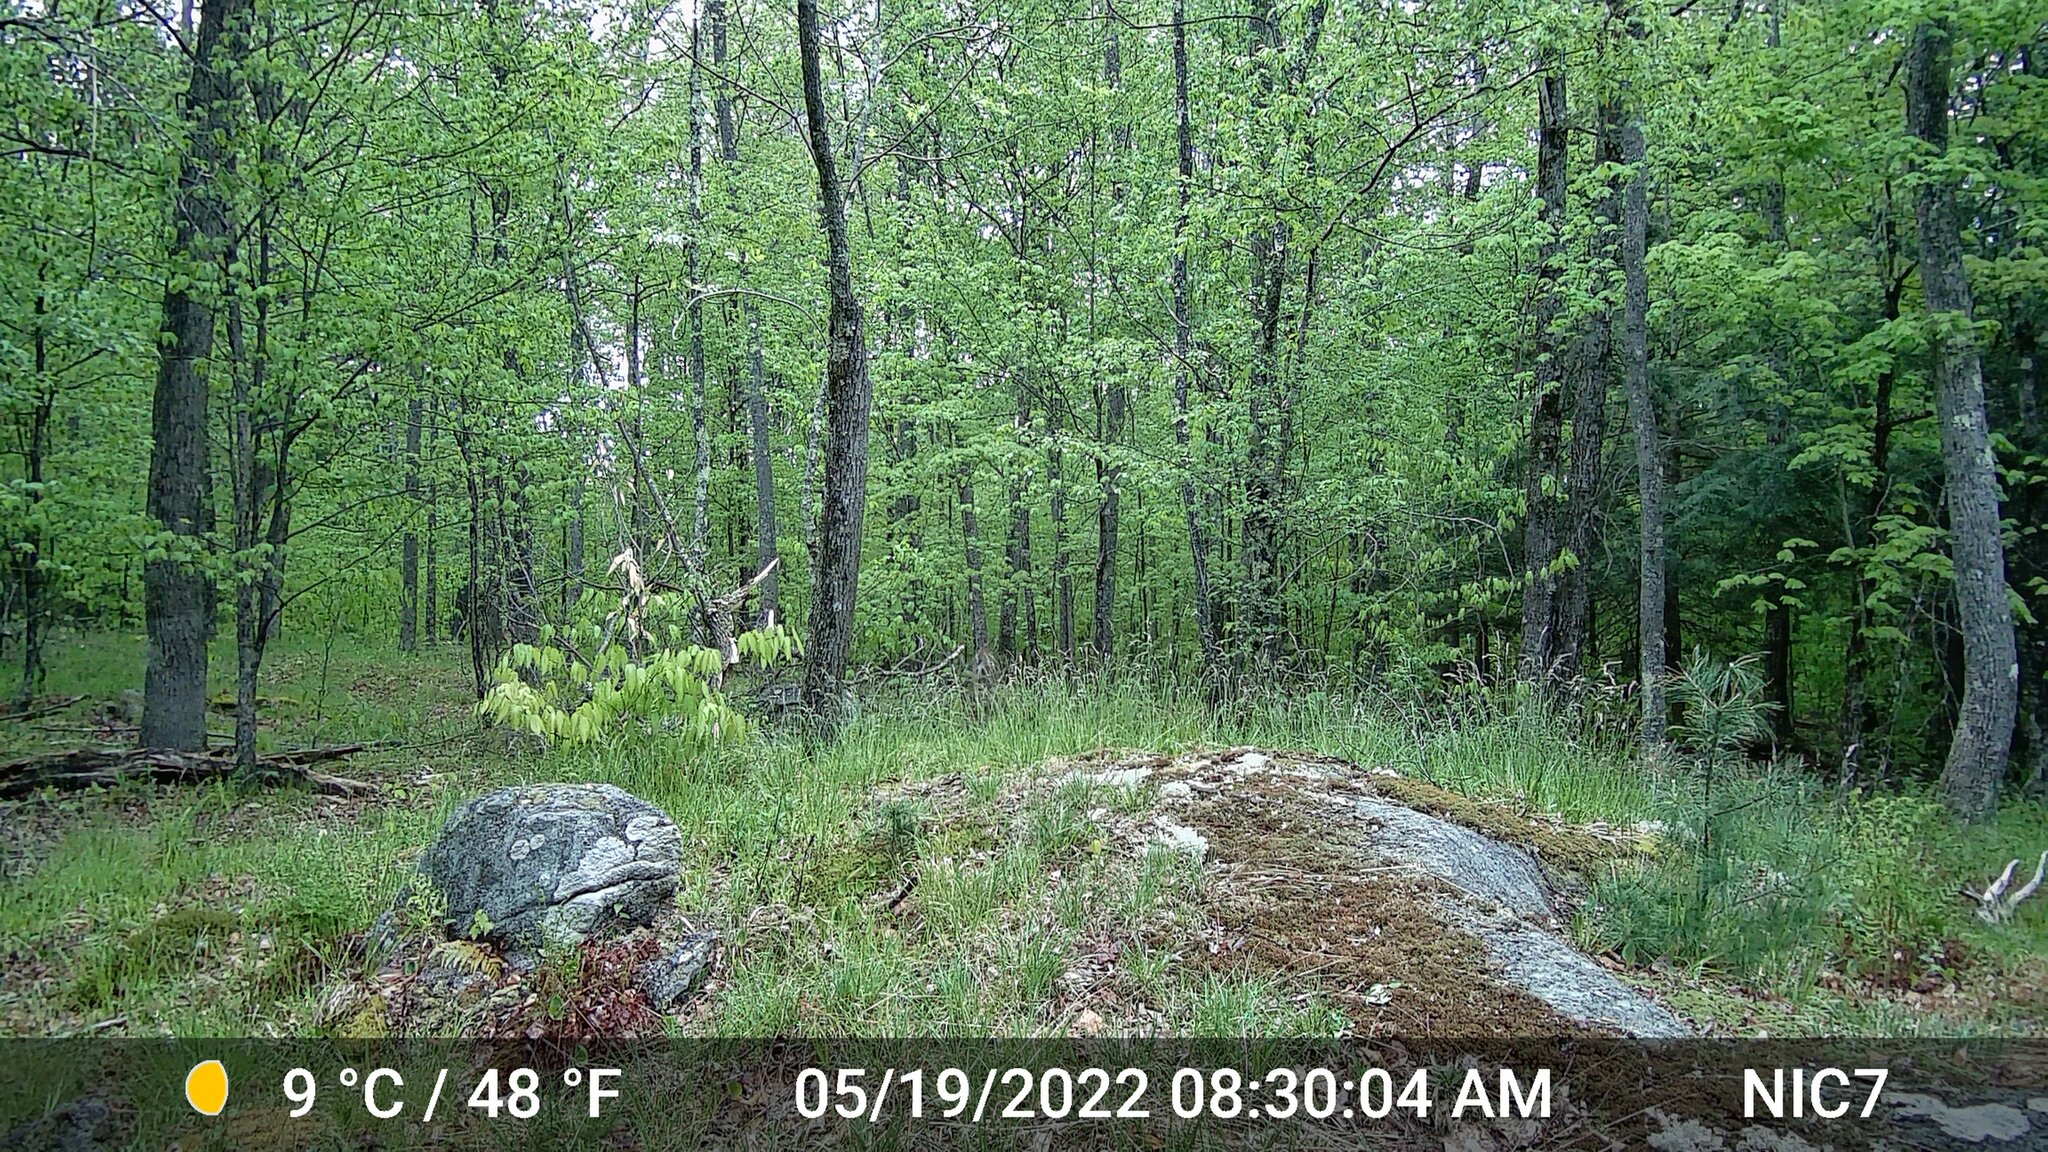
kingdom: Animalia
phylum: Chordata
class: Mammalia
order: Artiodactyla
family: Cervidae
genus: Odocoileus
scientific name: Odocoileus virginianus
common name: White-tailed deer
